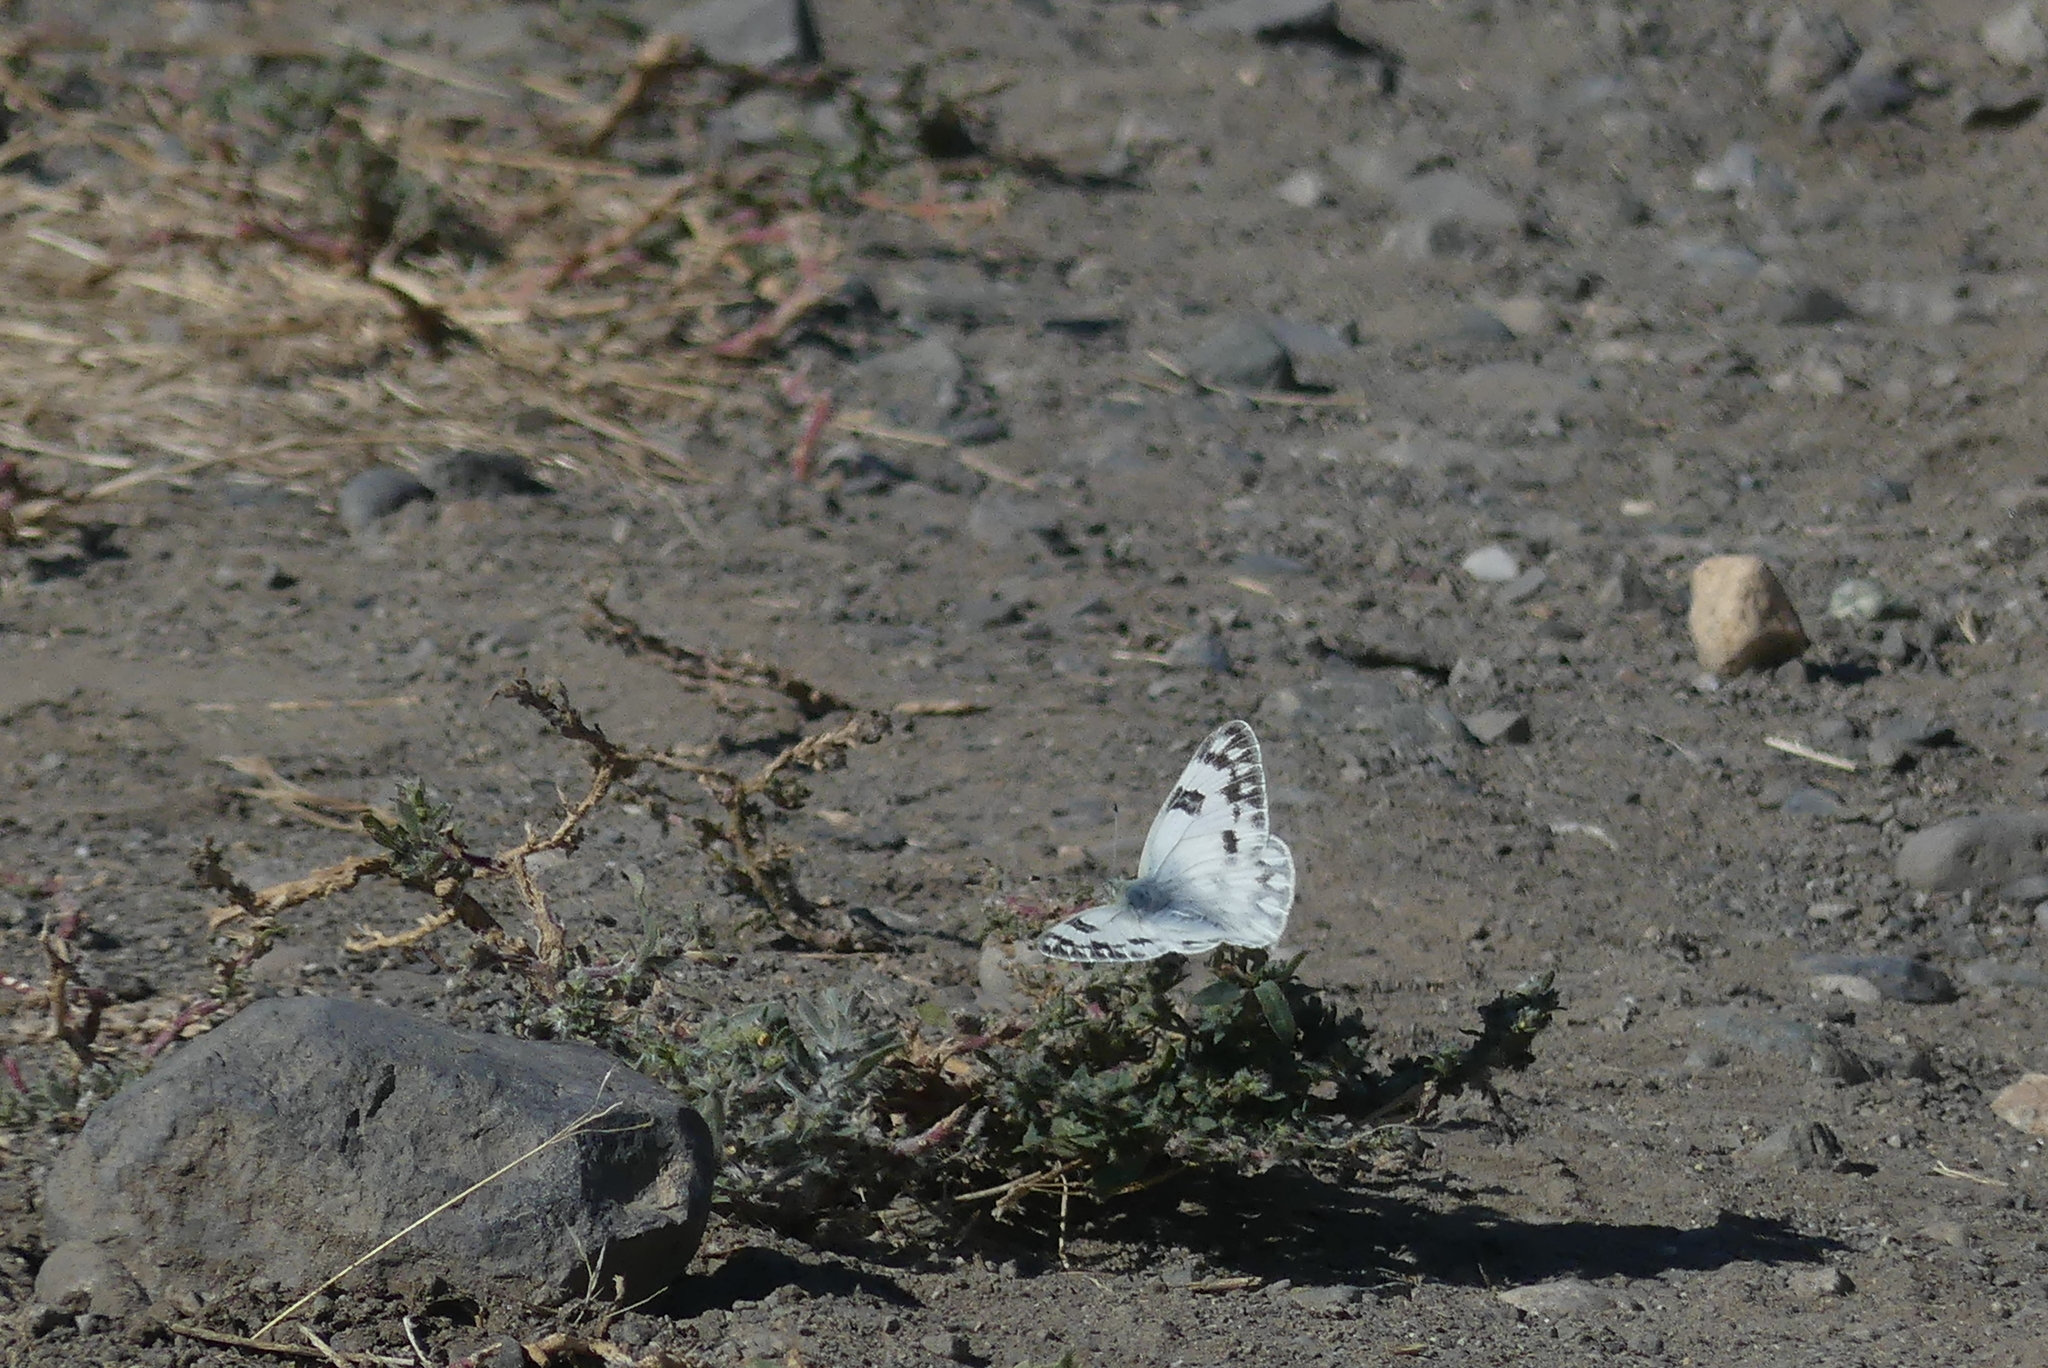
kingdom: Animalia
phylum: Arthropoda
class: Insecta
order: Lepidoptera
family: Pieridae
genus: Pontia
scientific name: Pontia occidentalis
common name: Western white
